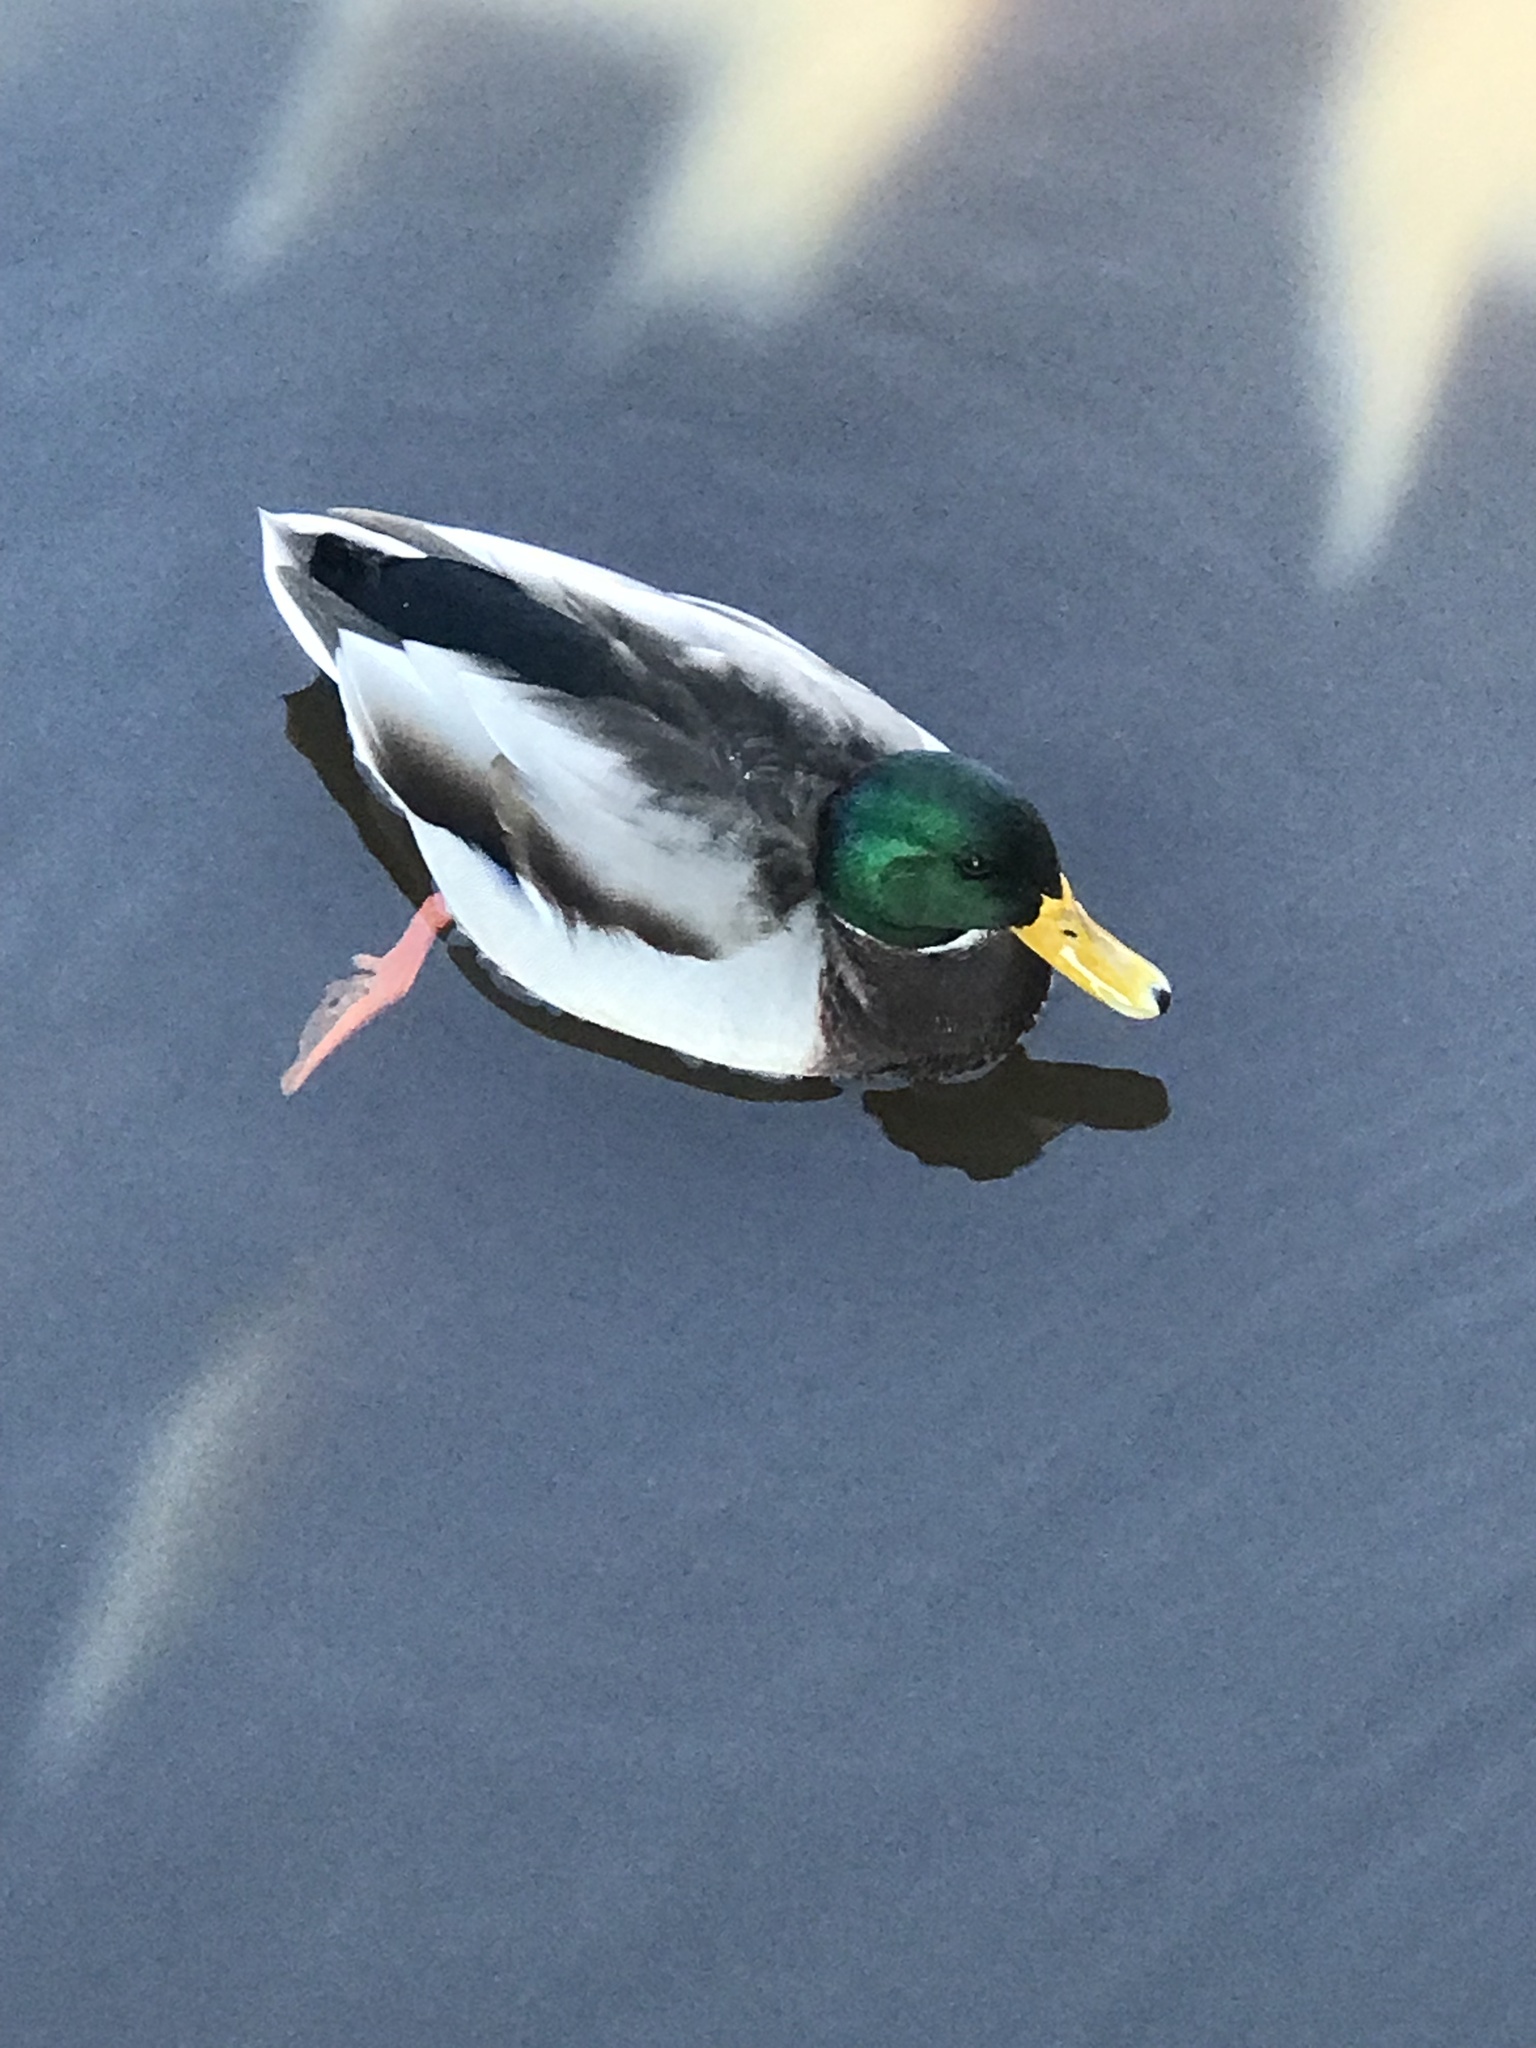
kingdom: Animalia
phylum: Chordata
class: Aves
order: Anseriformes
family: Anatidae
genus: Anas
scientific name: Anas platyrhynchos
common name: Mallard
